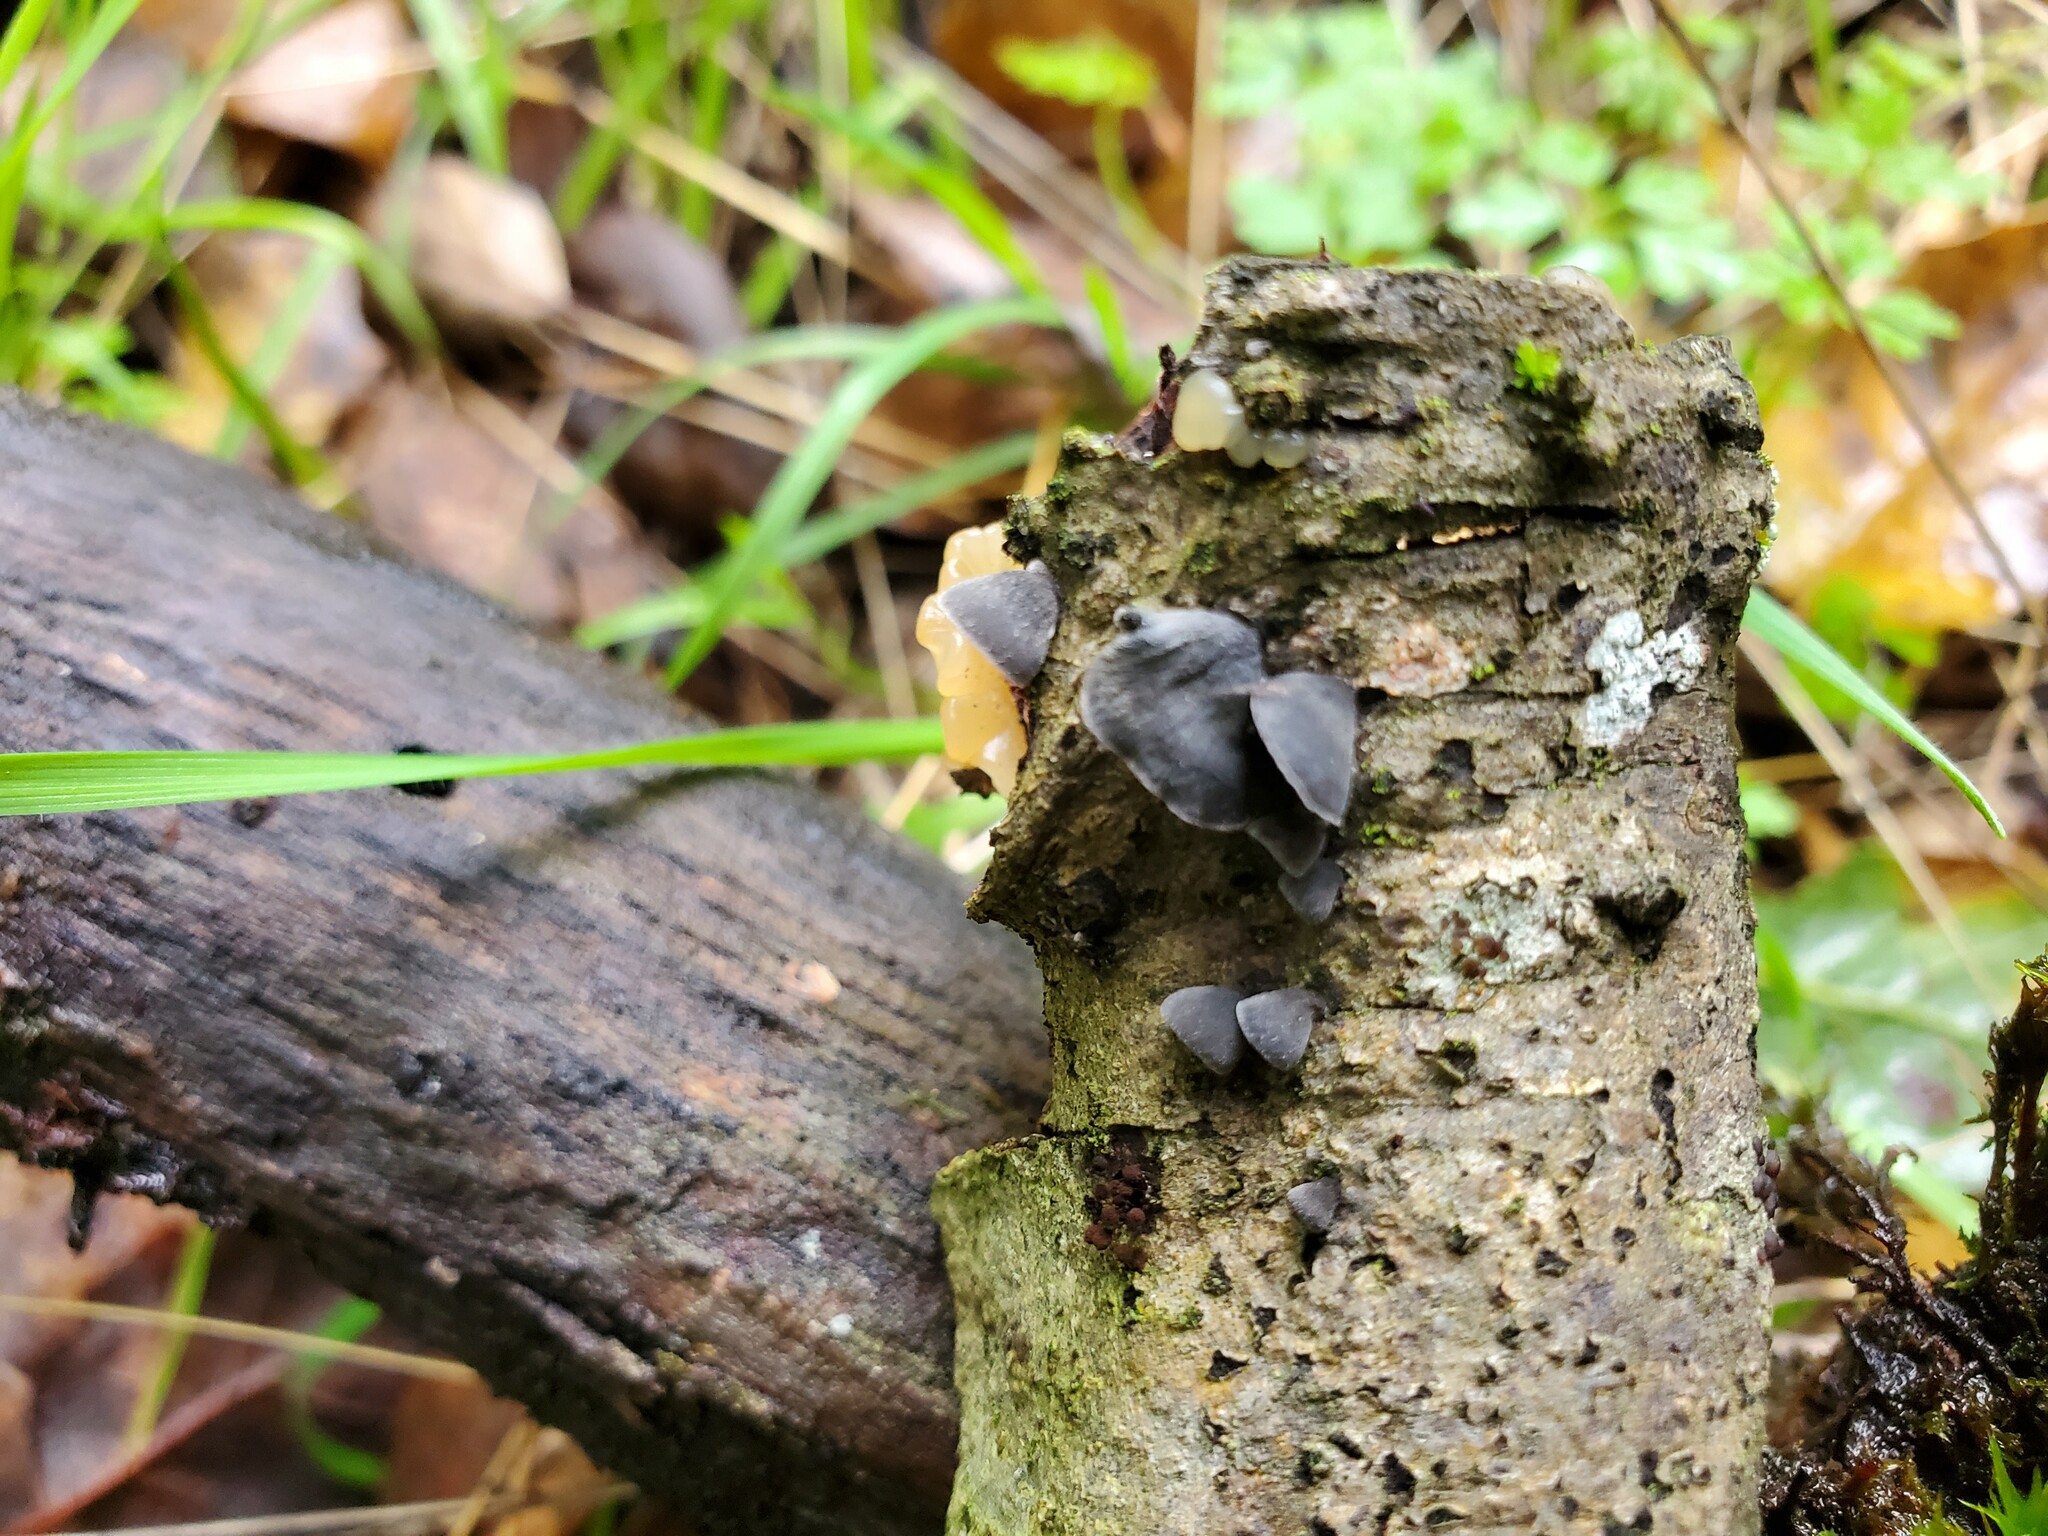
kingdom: Fungi
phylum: Basidiomycota
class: Agaricomycetes
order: Agaricales
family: Pleurotaceae
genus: Resupinatus
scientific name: Resupinatus applicatus
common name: Smoked oysterling
